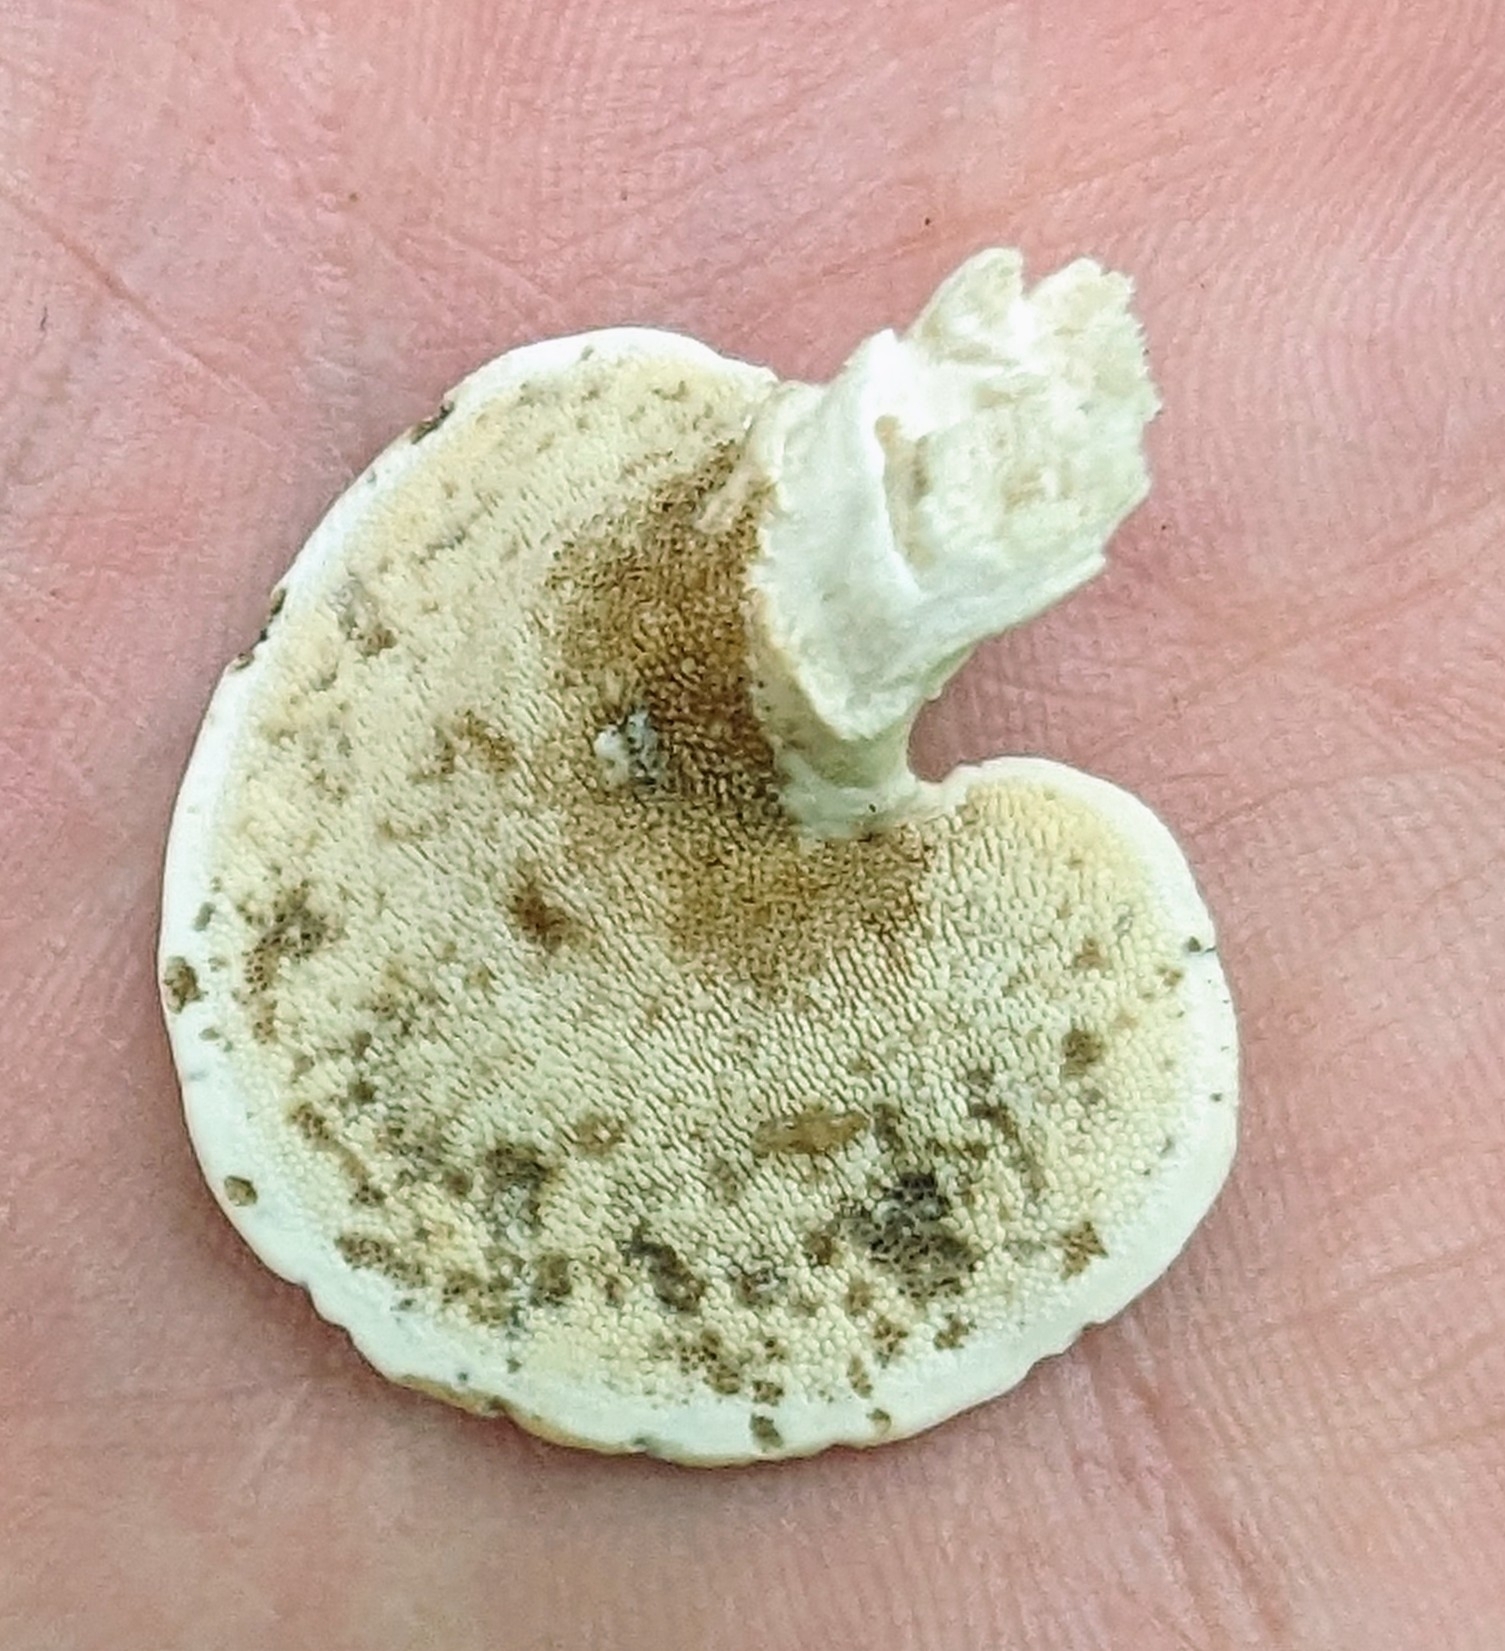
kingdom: Fungi
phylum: Basidiomycota
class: Agaricomycetes
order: Polyporales
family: Steccherinaceae
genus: Mycorrhaphium
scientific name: Mycorrhaphium adustum
